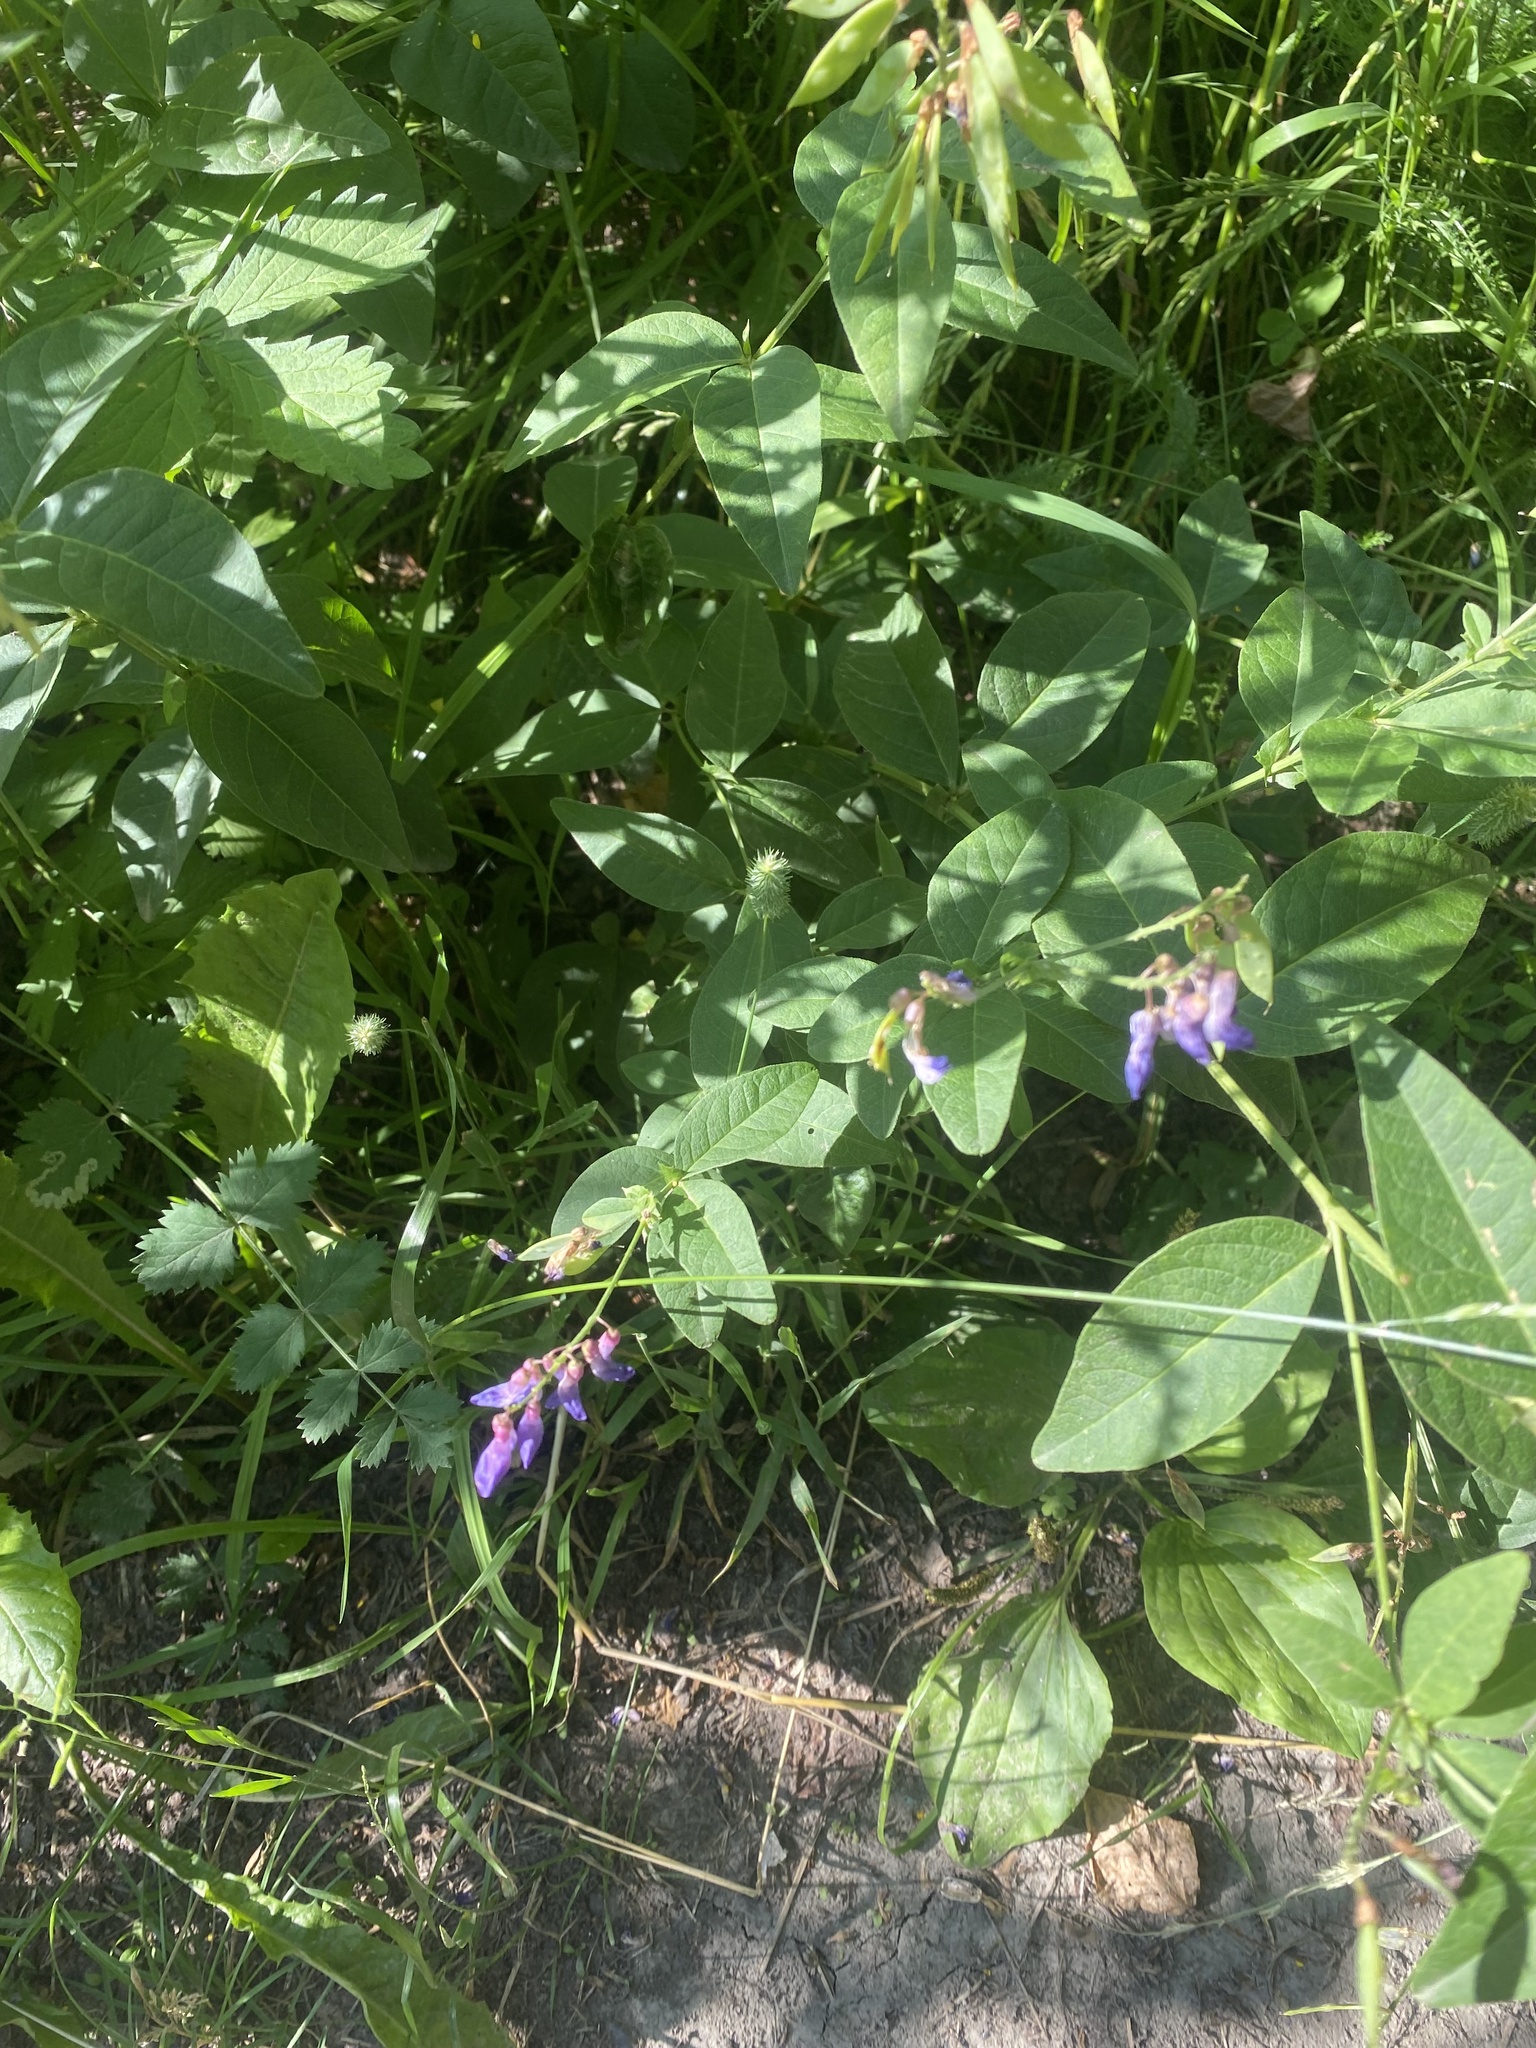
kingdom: Plantae
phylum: Tracheophyta
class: Magnoliopsida
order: Fabales
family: Fabaceae
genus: Vicia
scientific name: Vicia unijuga
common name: Two-leaf vetch
